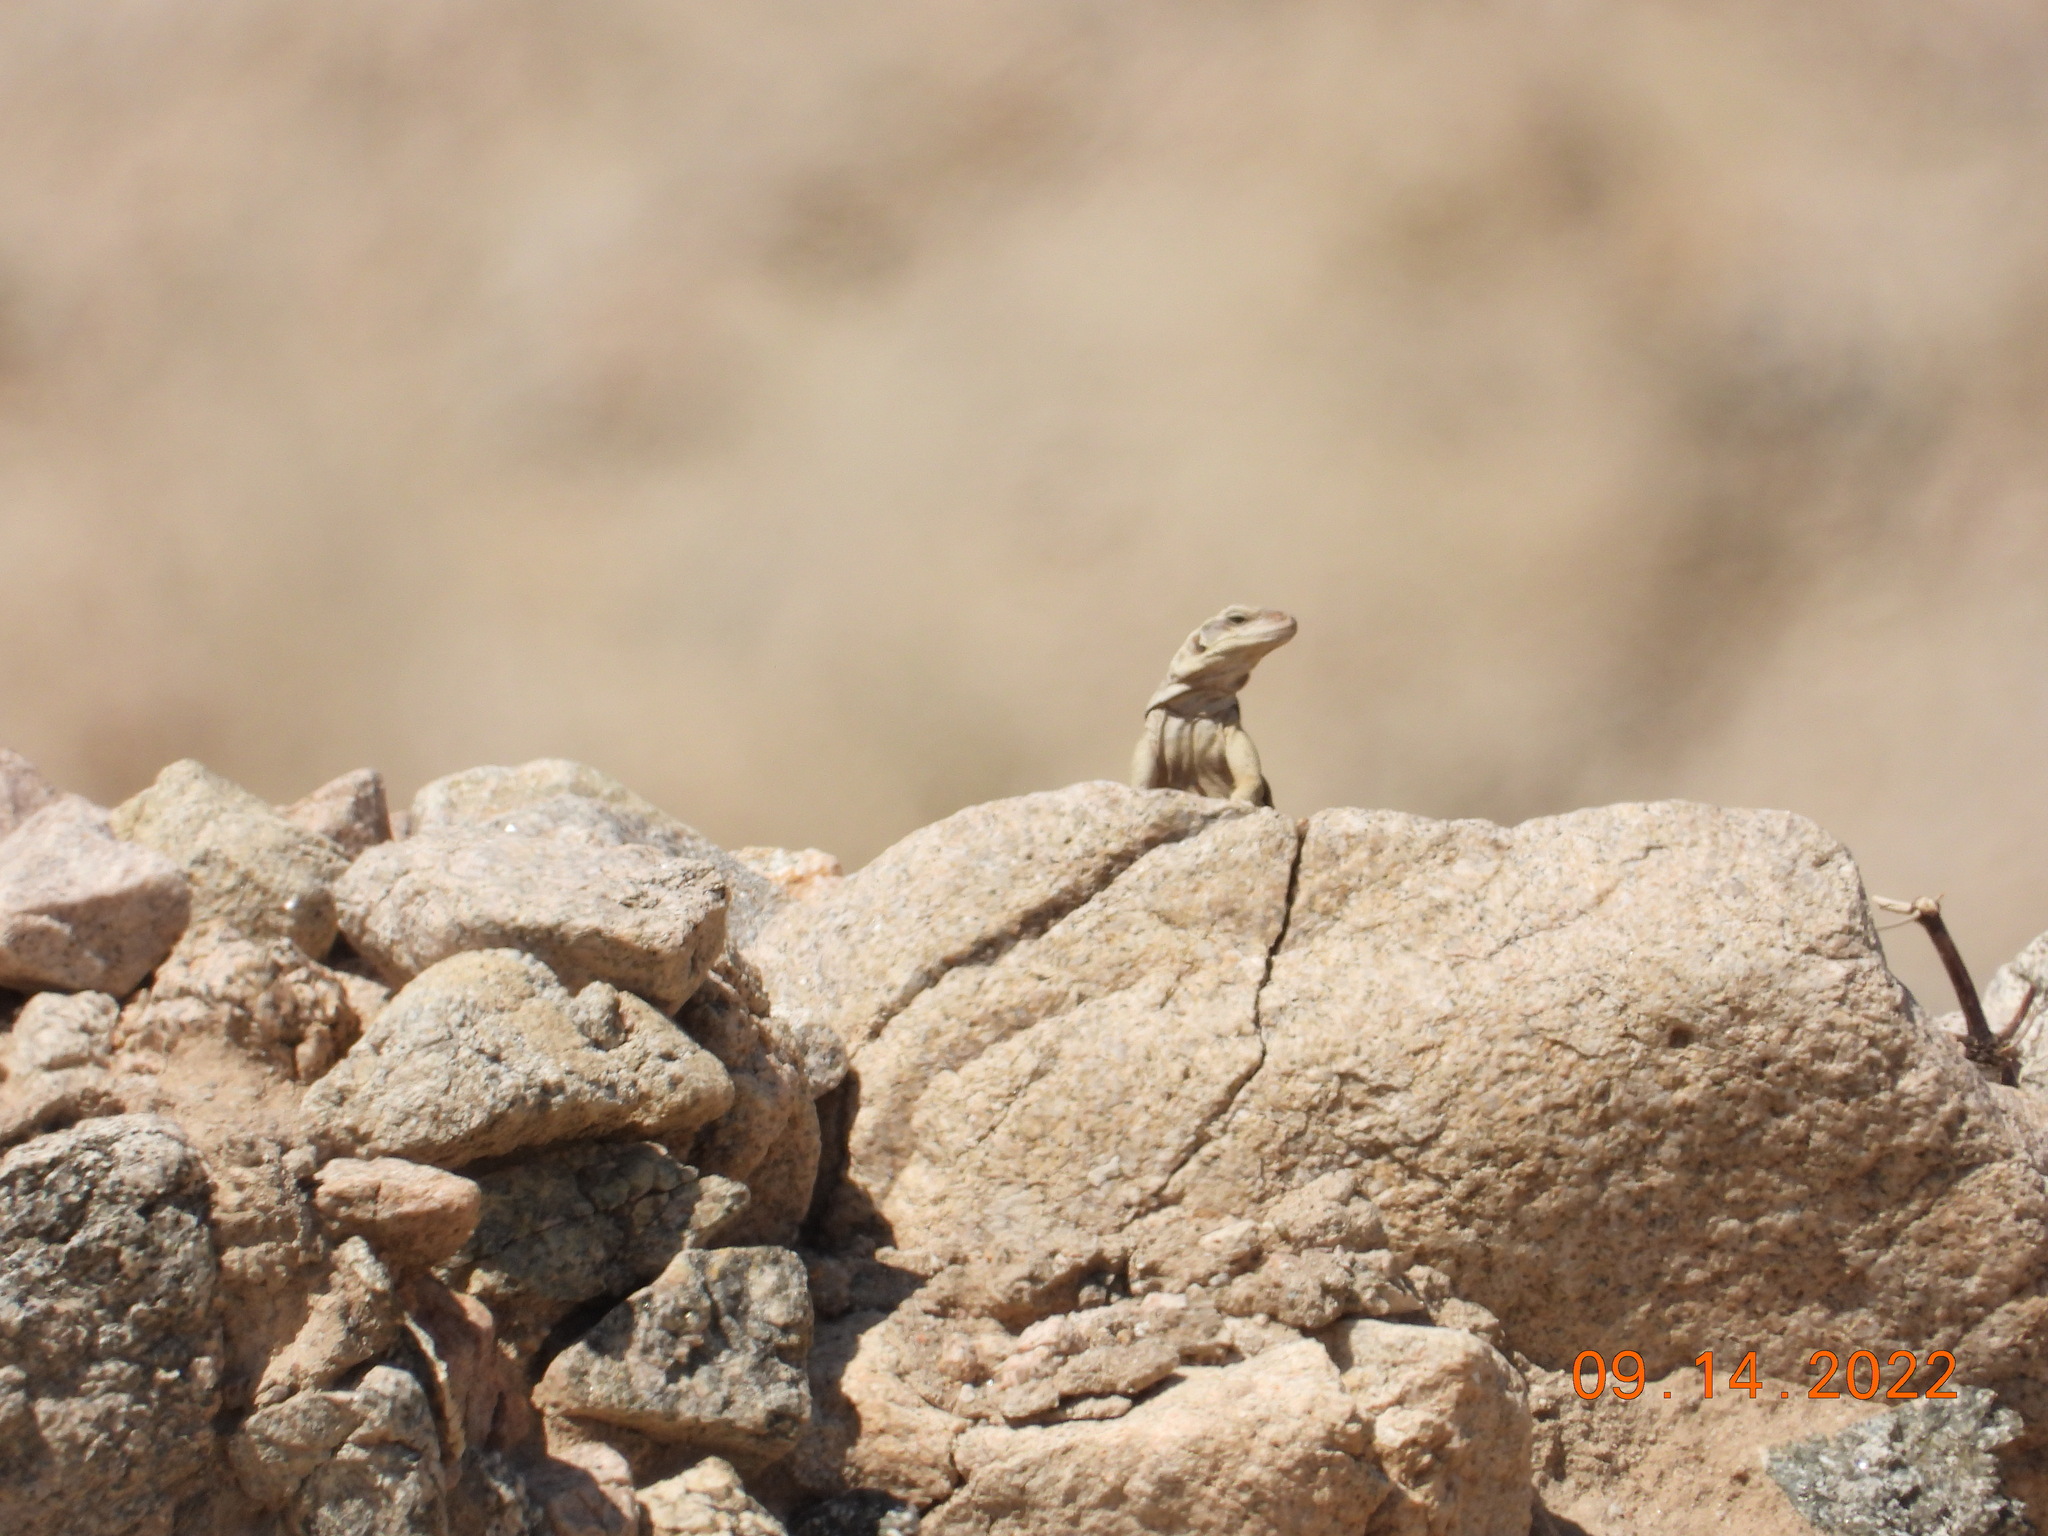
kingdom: Animalia
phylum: Chordata
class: Squamata
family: Iguanidae
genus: Sauromalus
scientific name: Sauromalus ater
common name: Northern chuckwalla
